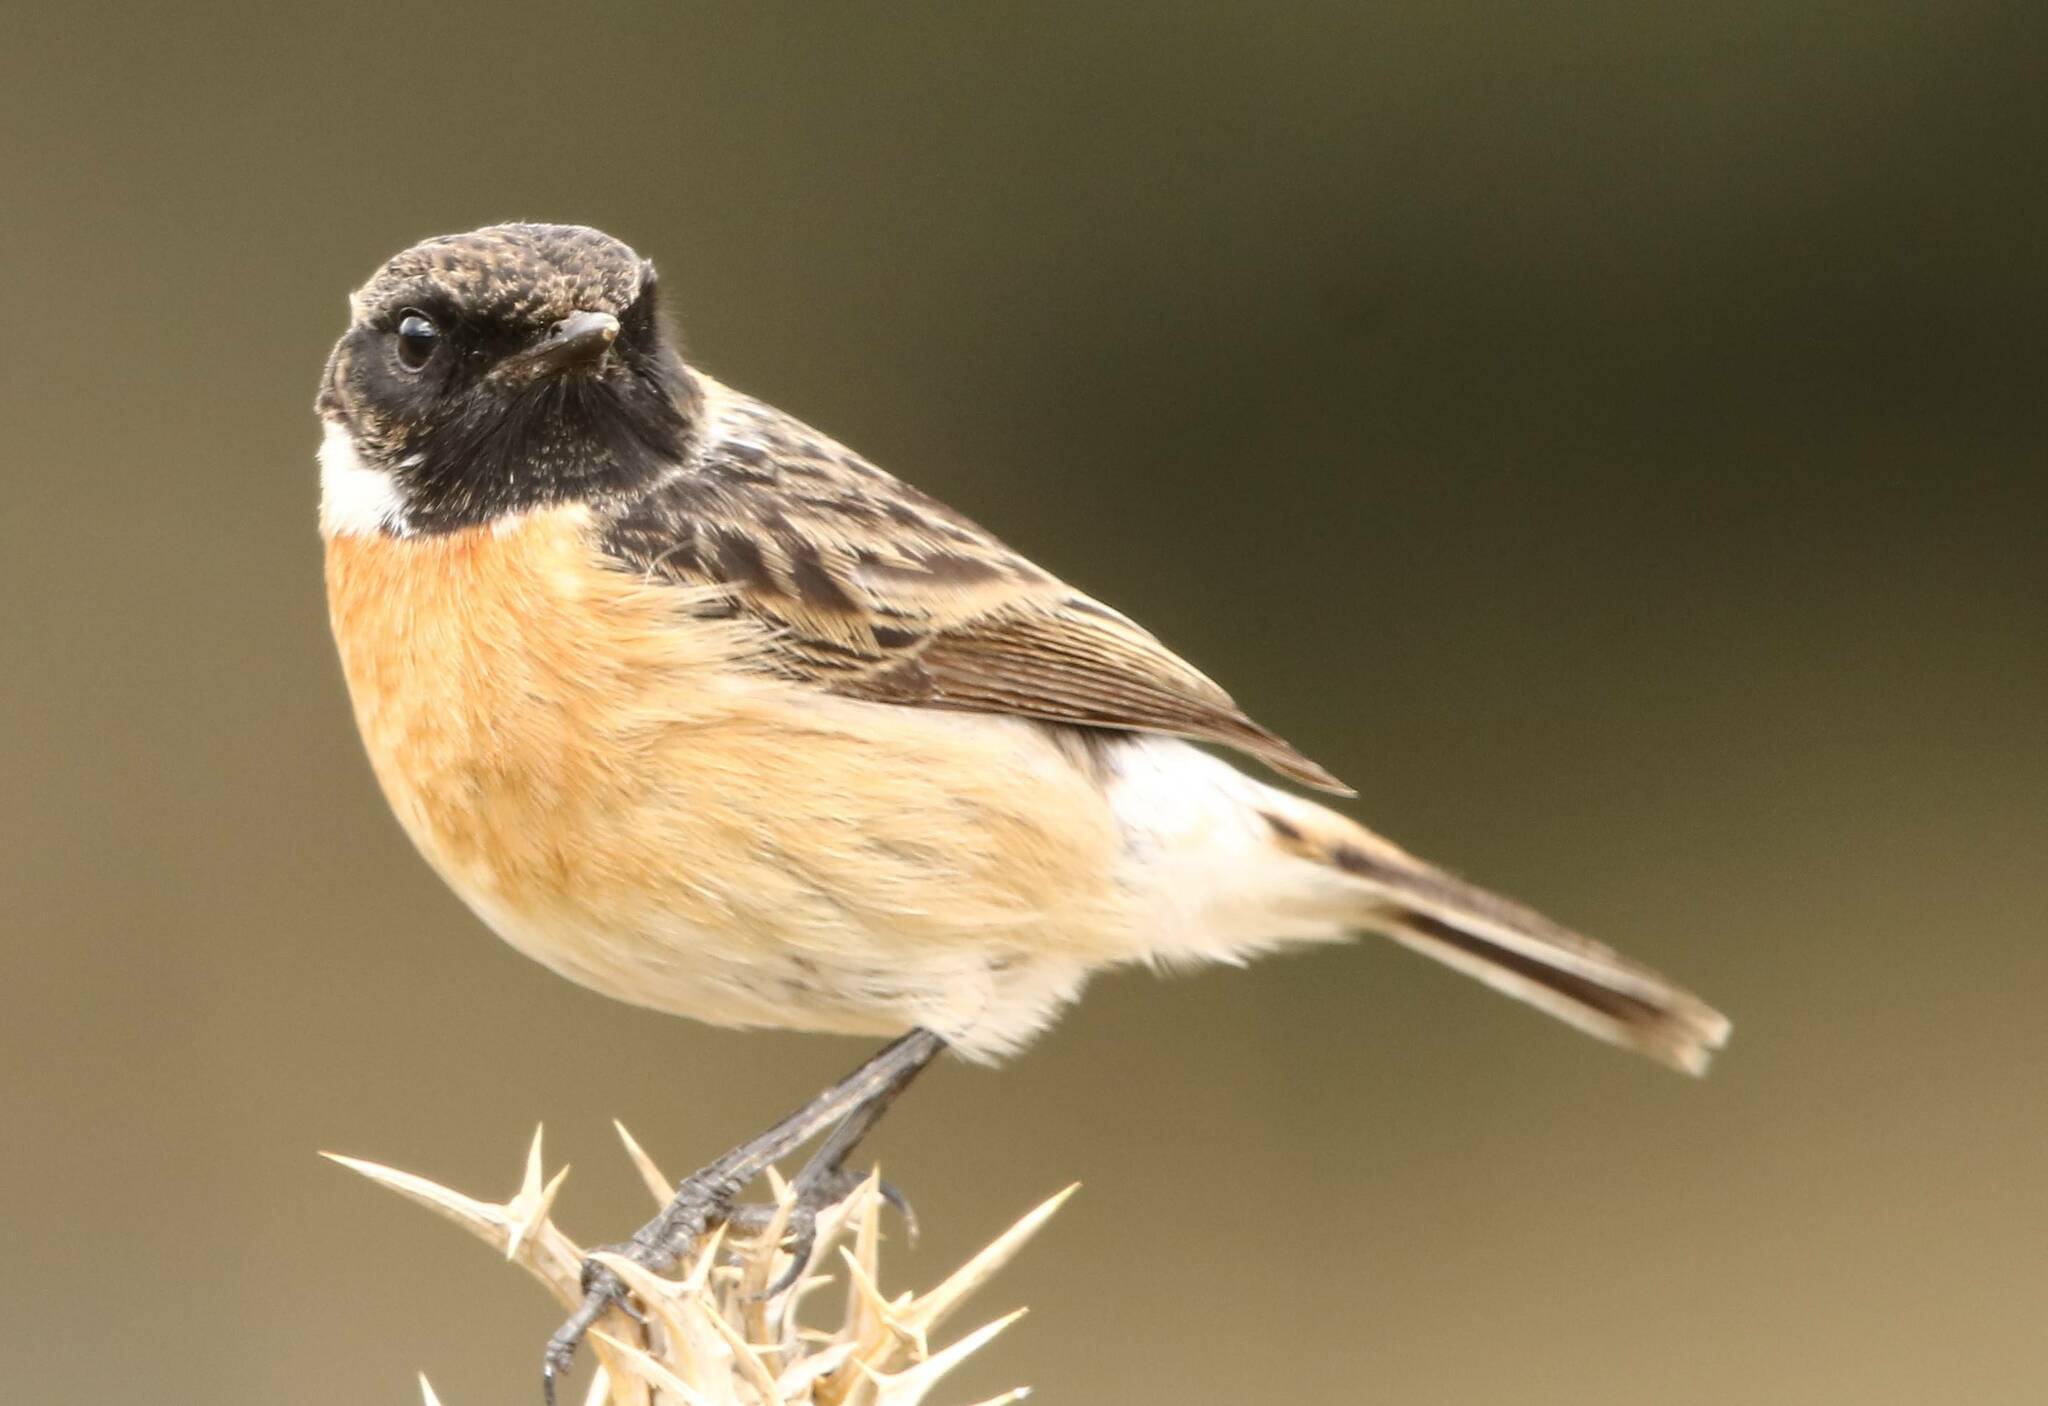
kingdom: Animalia
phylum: Chordata
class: Aves
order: Passeriformes
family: Muscicapidae
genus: Saxicola
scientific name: Saxicola rubicola
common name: European stonechat
